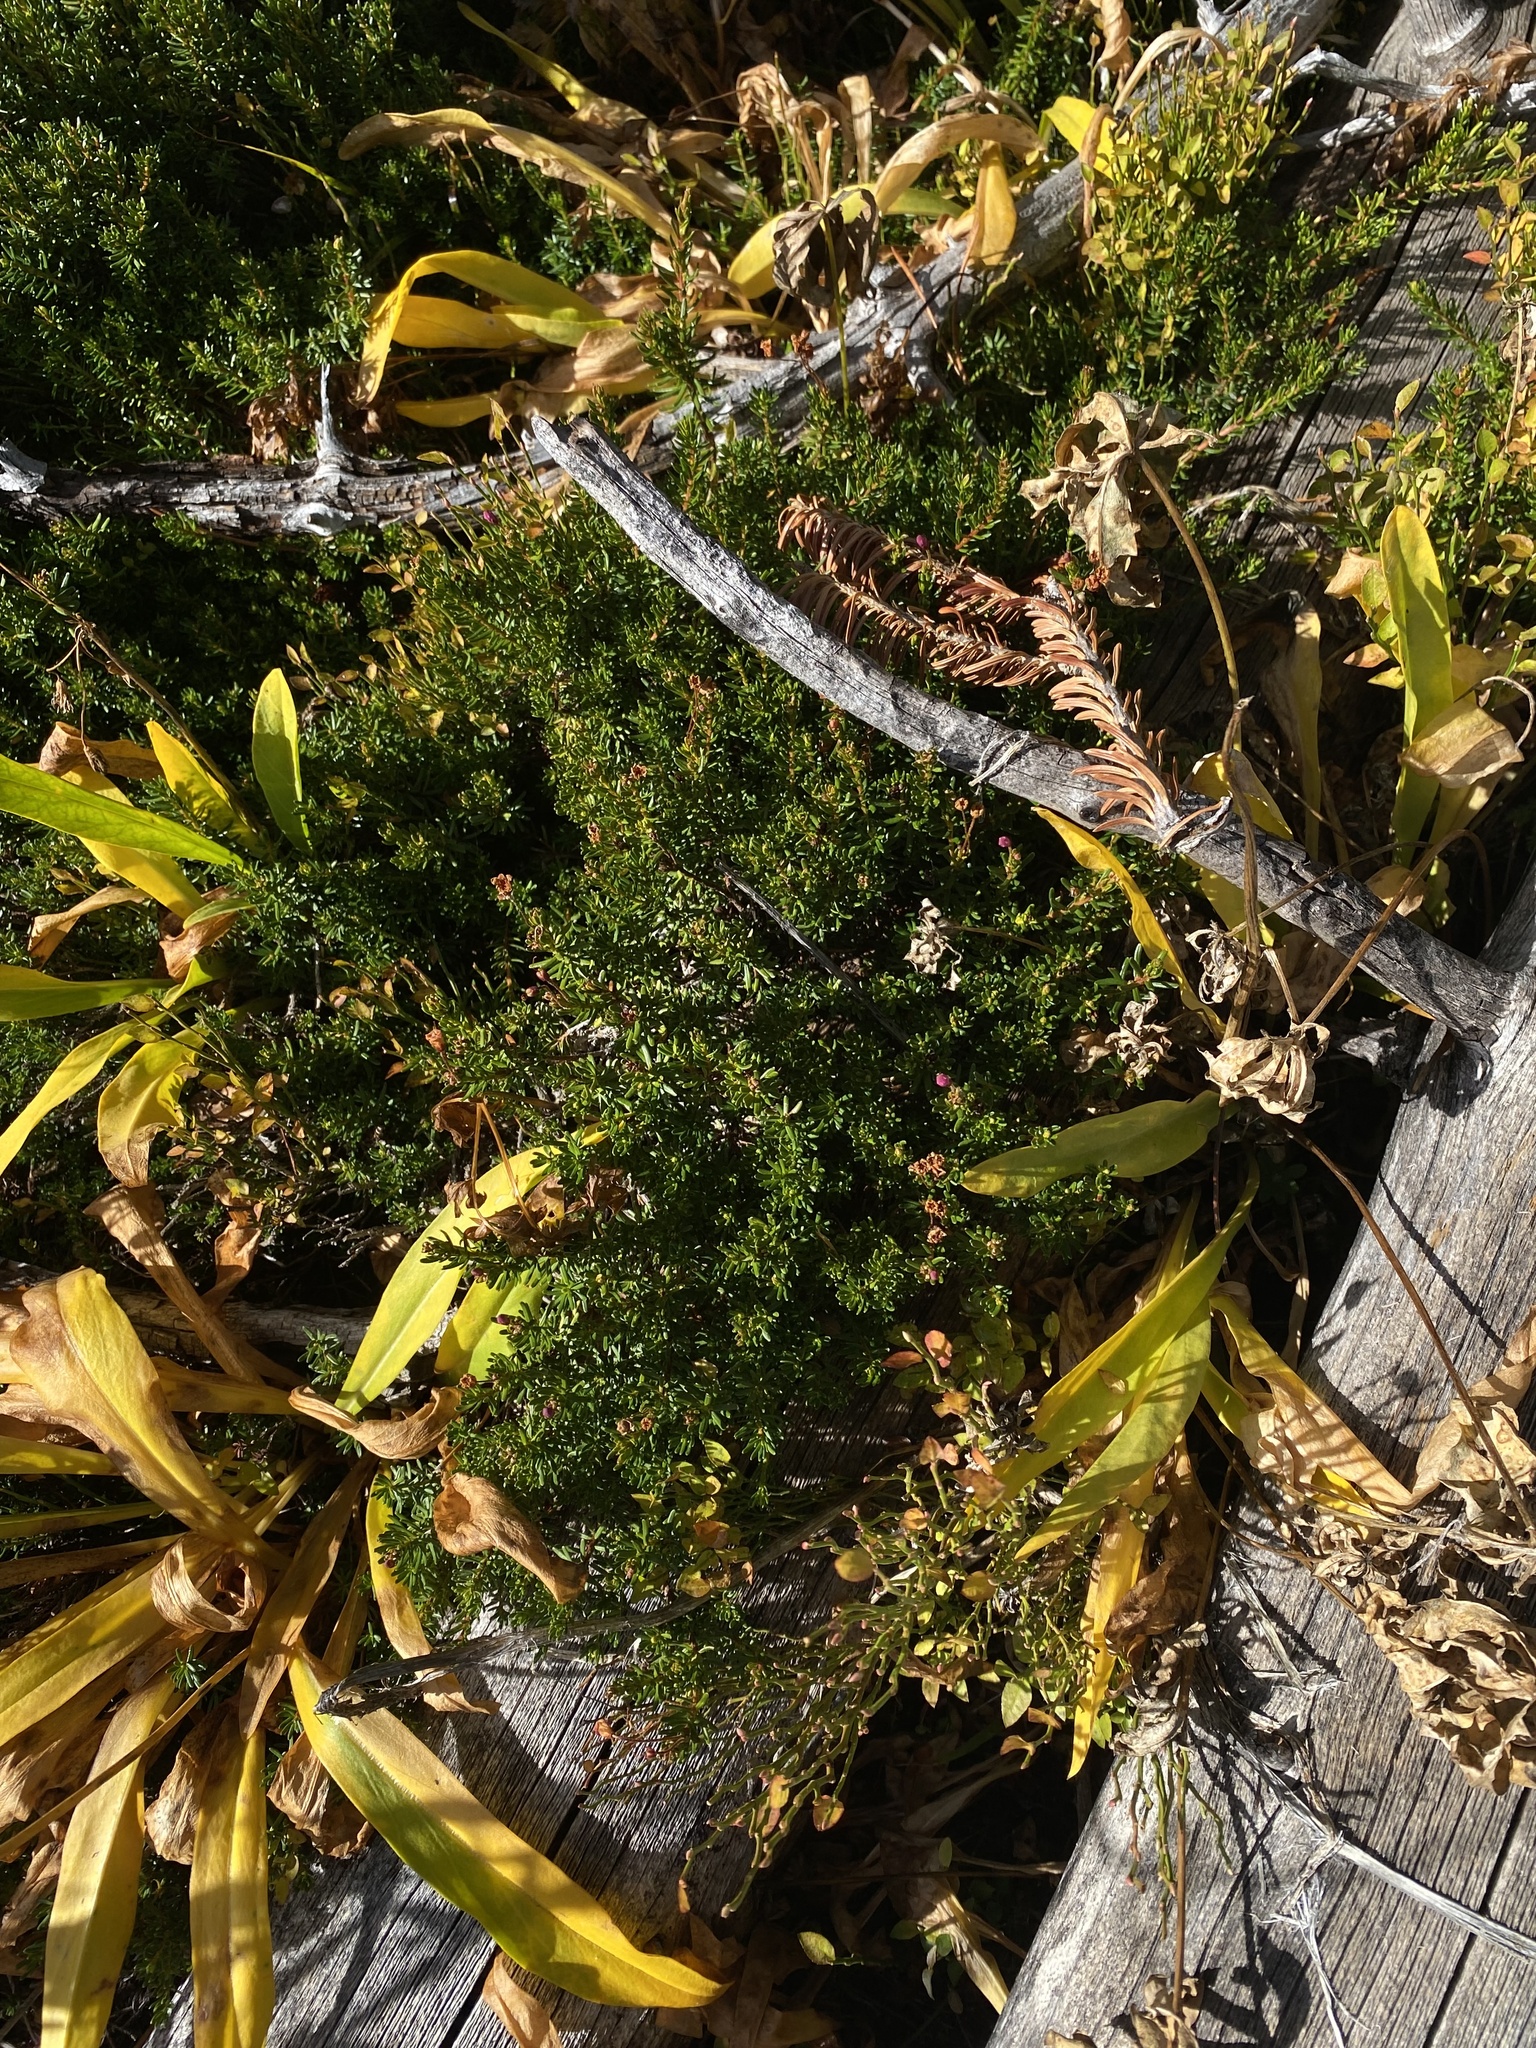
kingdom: Plantae
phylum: Tracheophyta
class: Magnoliopsida
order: Ericales
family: Ericaceae
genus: Phyllodoce
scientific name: Phyllodoce empetriformis
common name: Pink mountain heather
